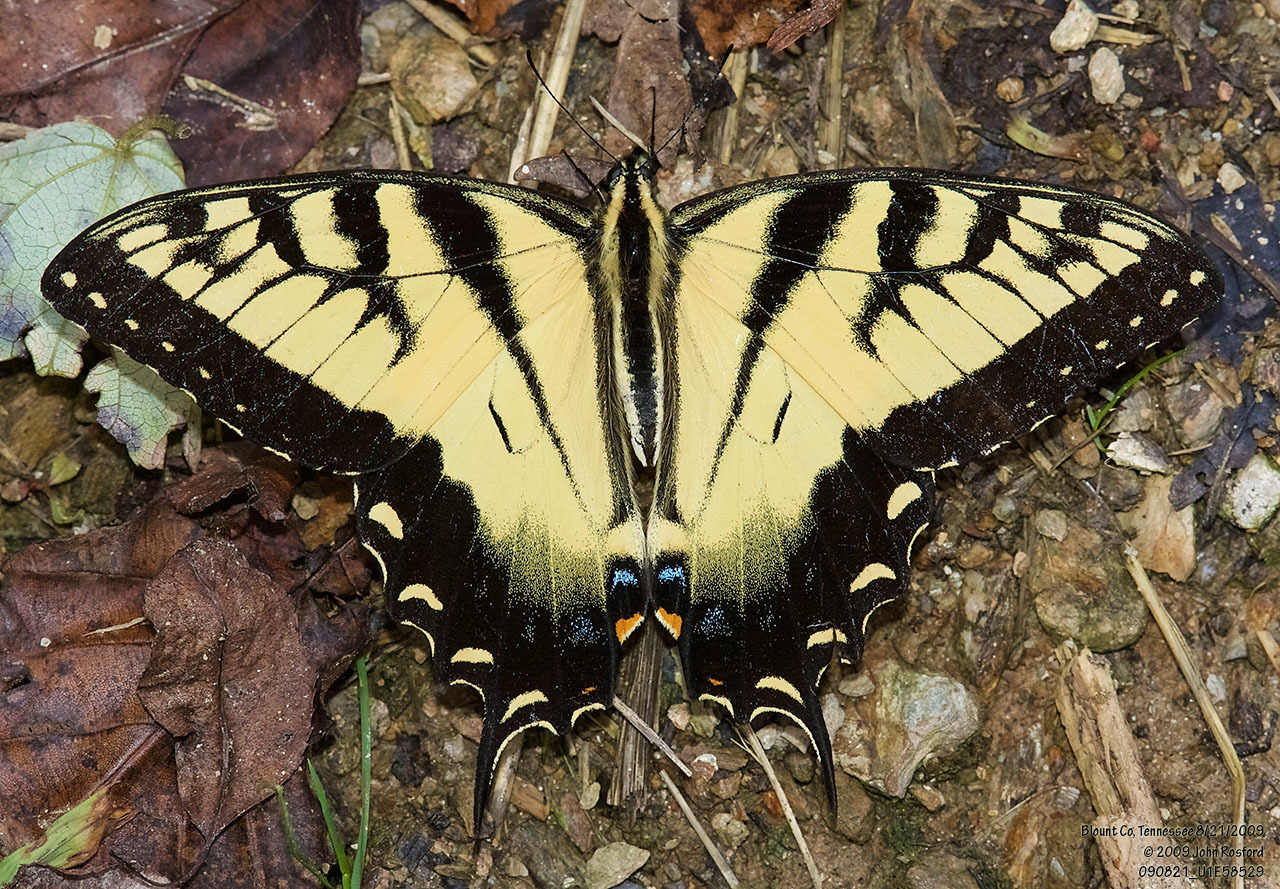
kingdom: Animalia
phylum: Arthropoda
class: Insecta
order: Lepidoptera
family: Papilionidae
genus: Papilio
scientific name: Papilio glaucus
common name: Tiger swallowtail
